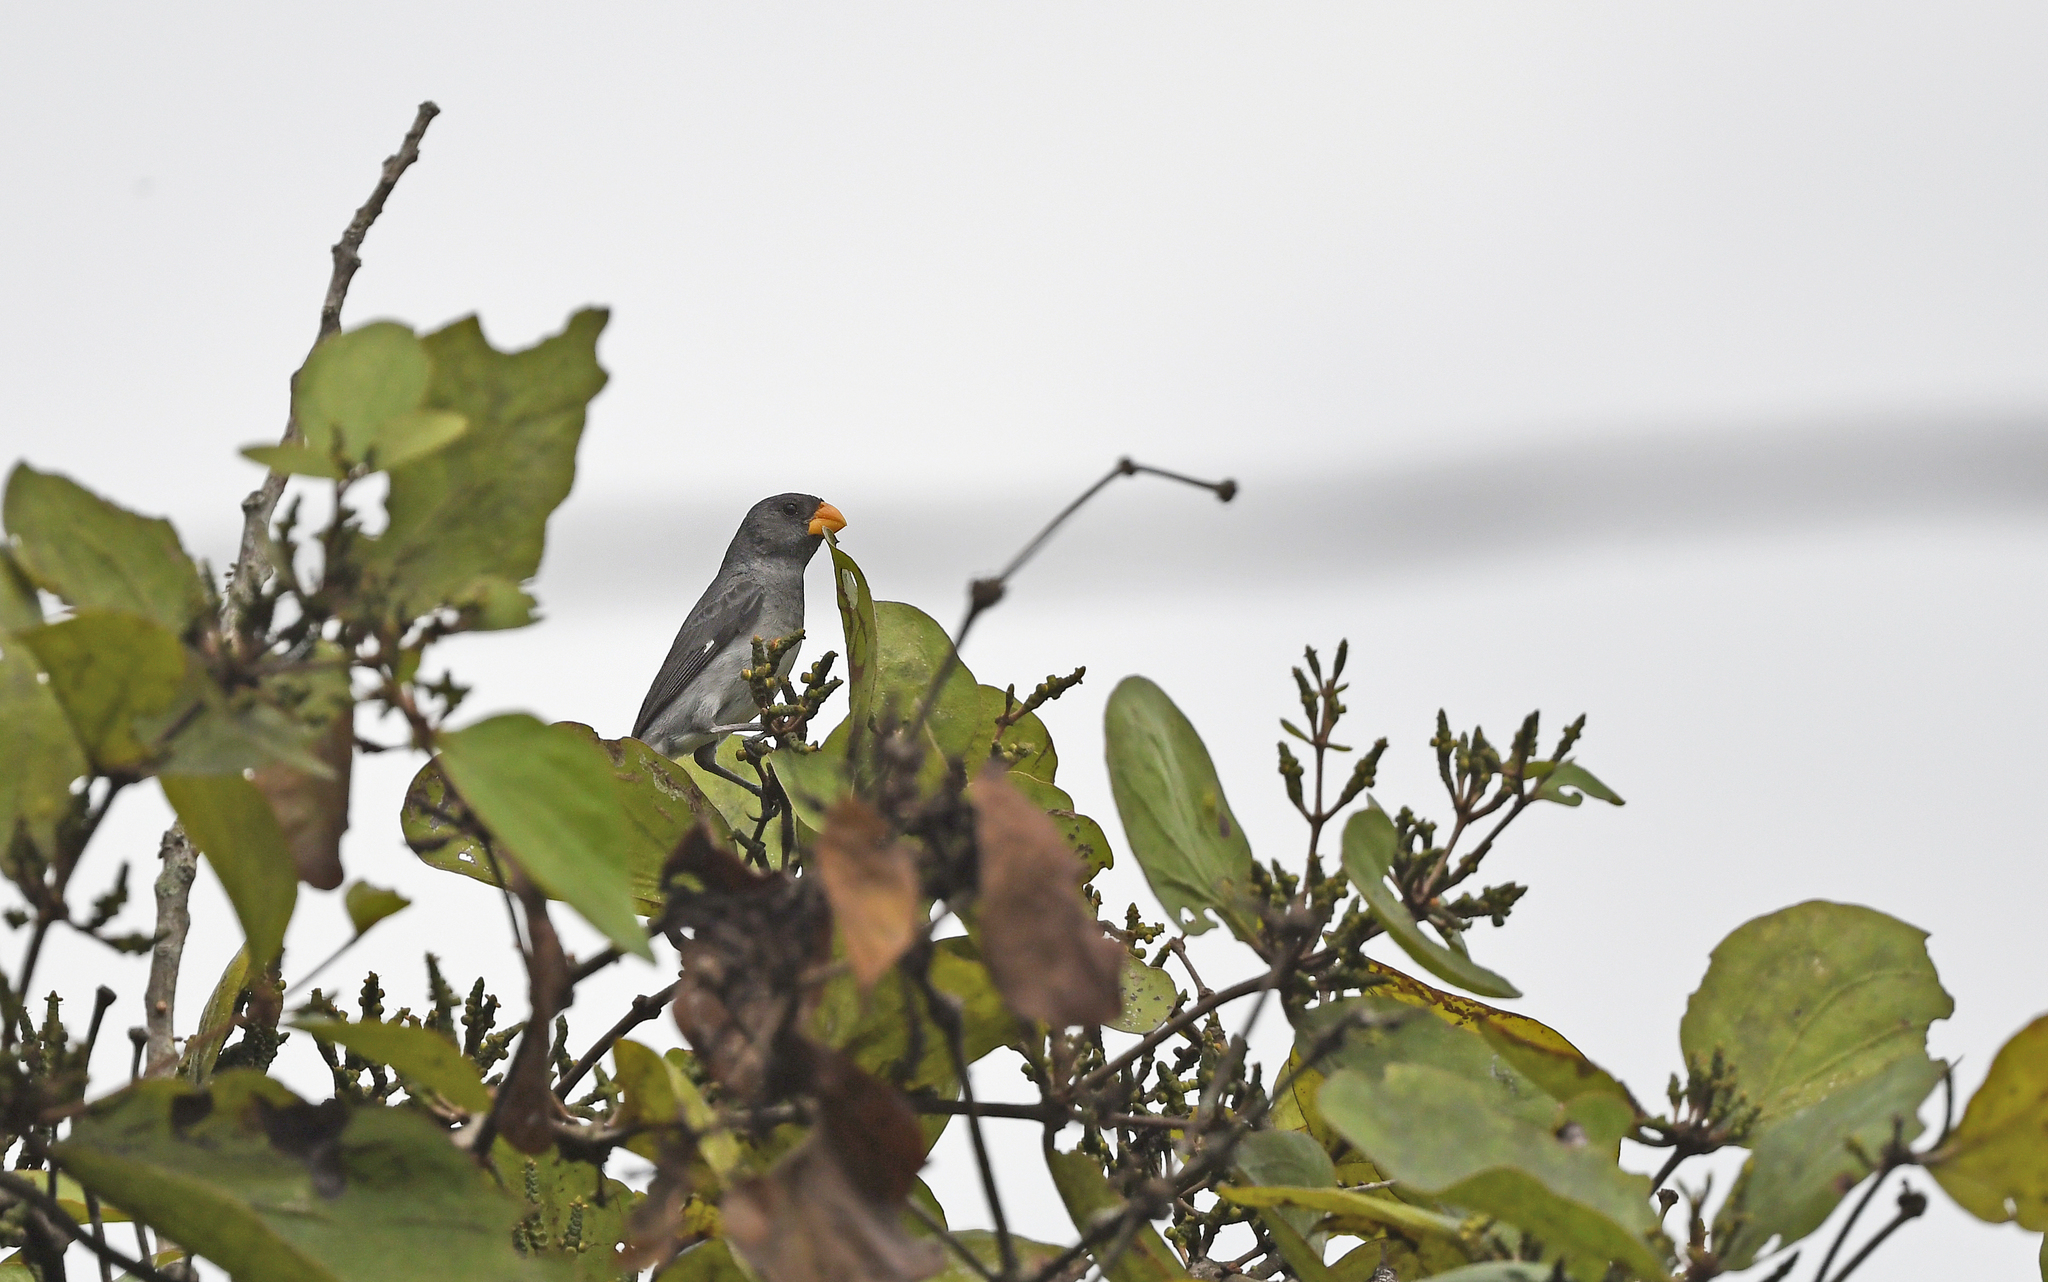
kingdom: Animalia
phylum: Chordata
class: Aves
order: Passeriformes
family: Thraupidae
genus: Sporophila
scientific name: Sporophila intermedia
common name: Grey seedeater
